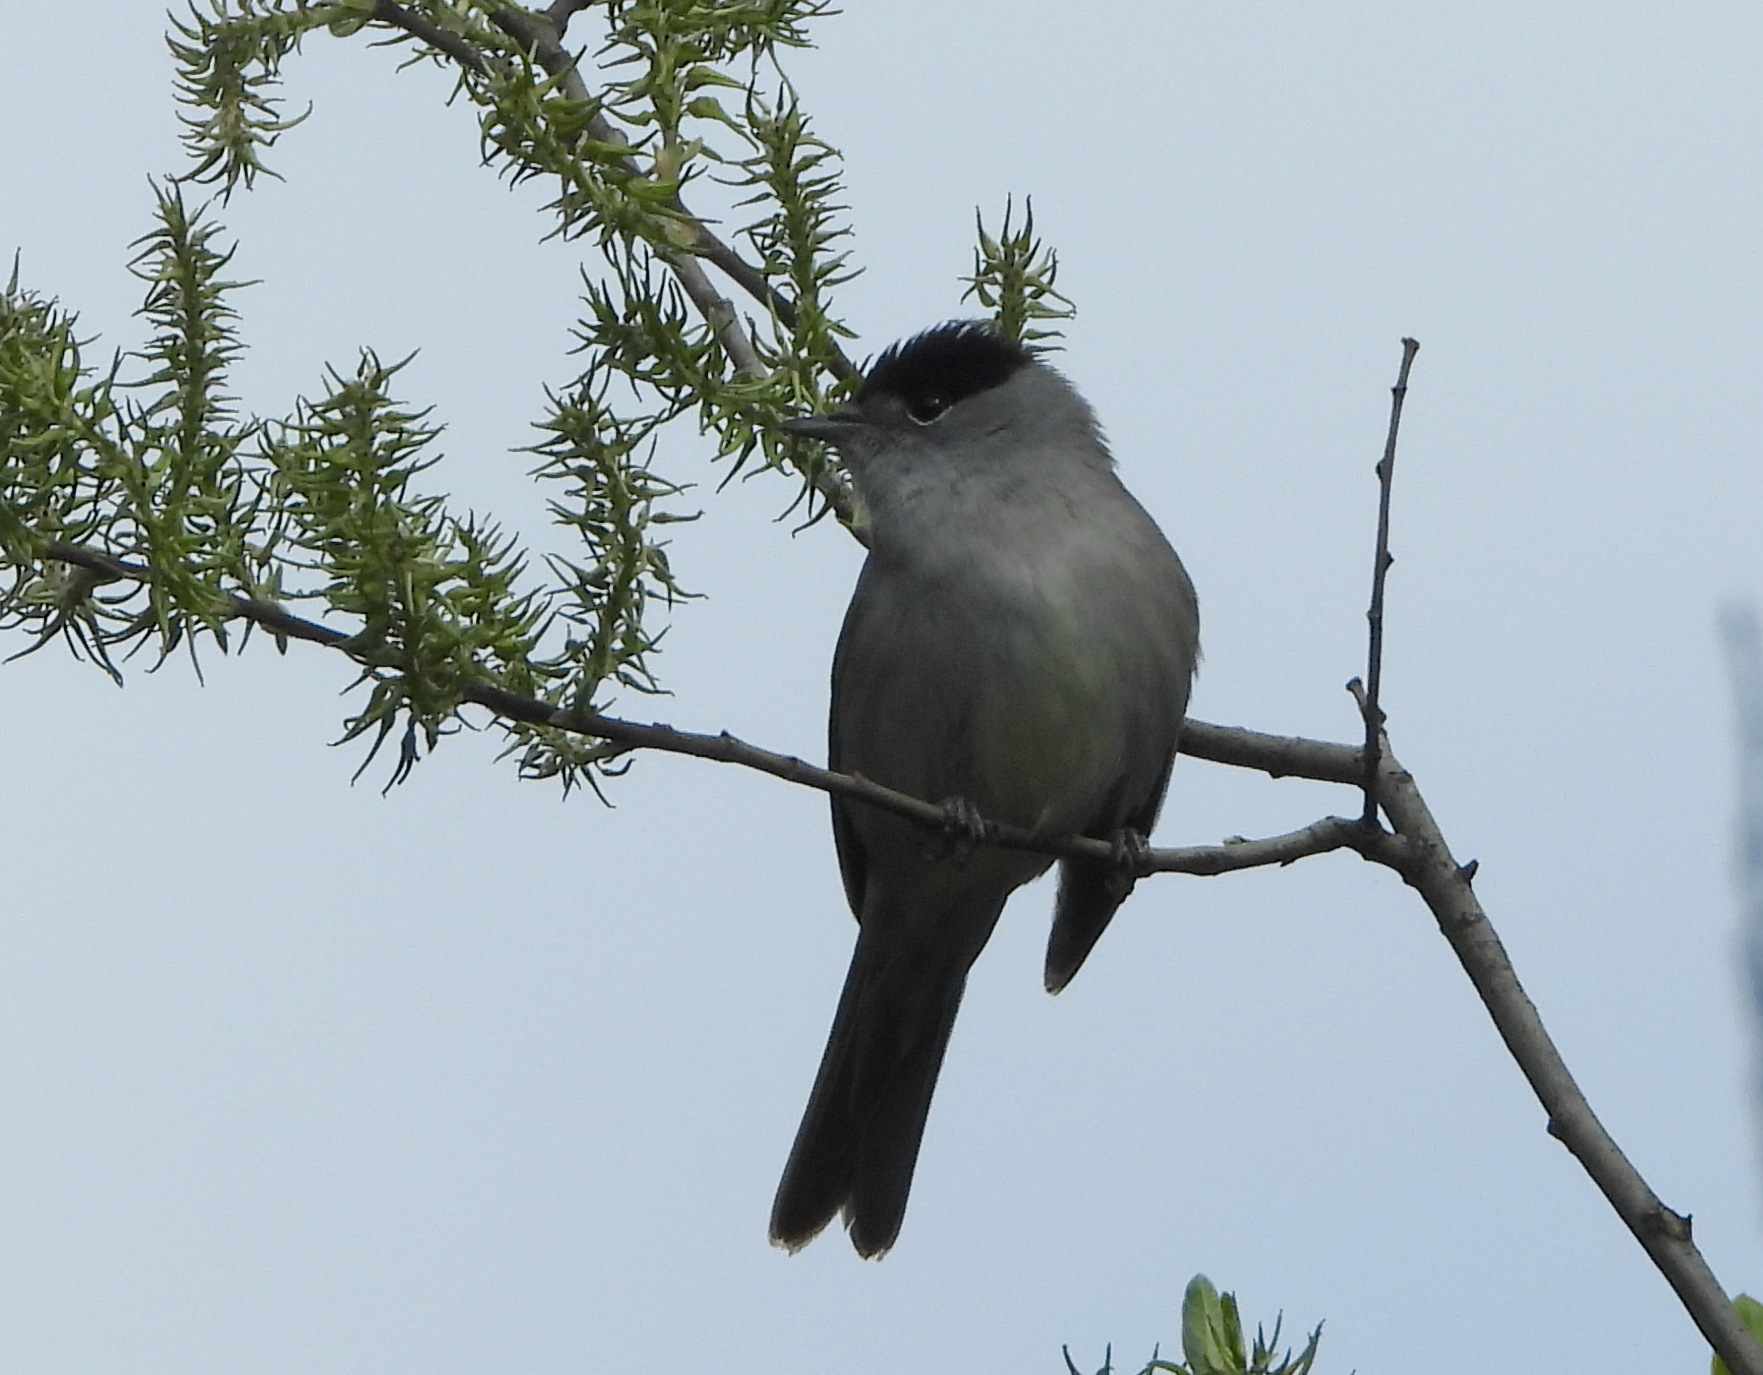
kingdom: Animalia
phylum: Chordata
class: Aves
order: Passeriformes
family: Sylviidae
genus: Sylvia
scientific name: Sylvia atricapilla
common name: Eurasian blackcap
